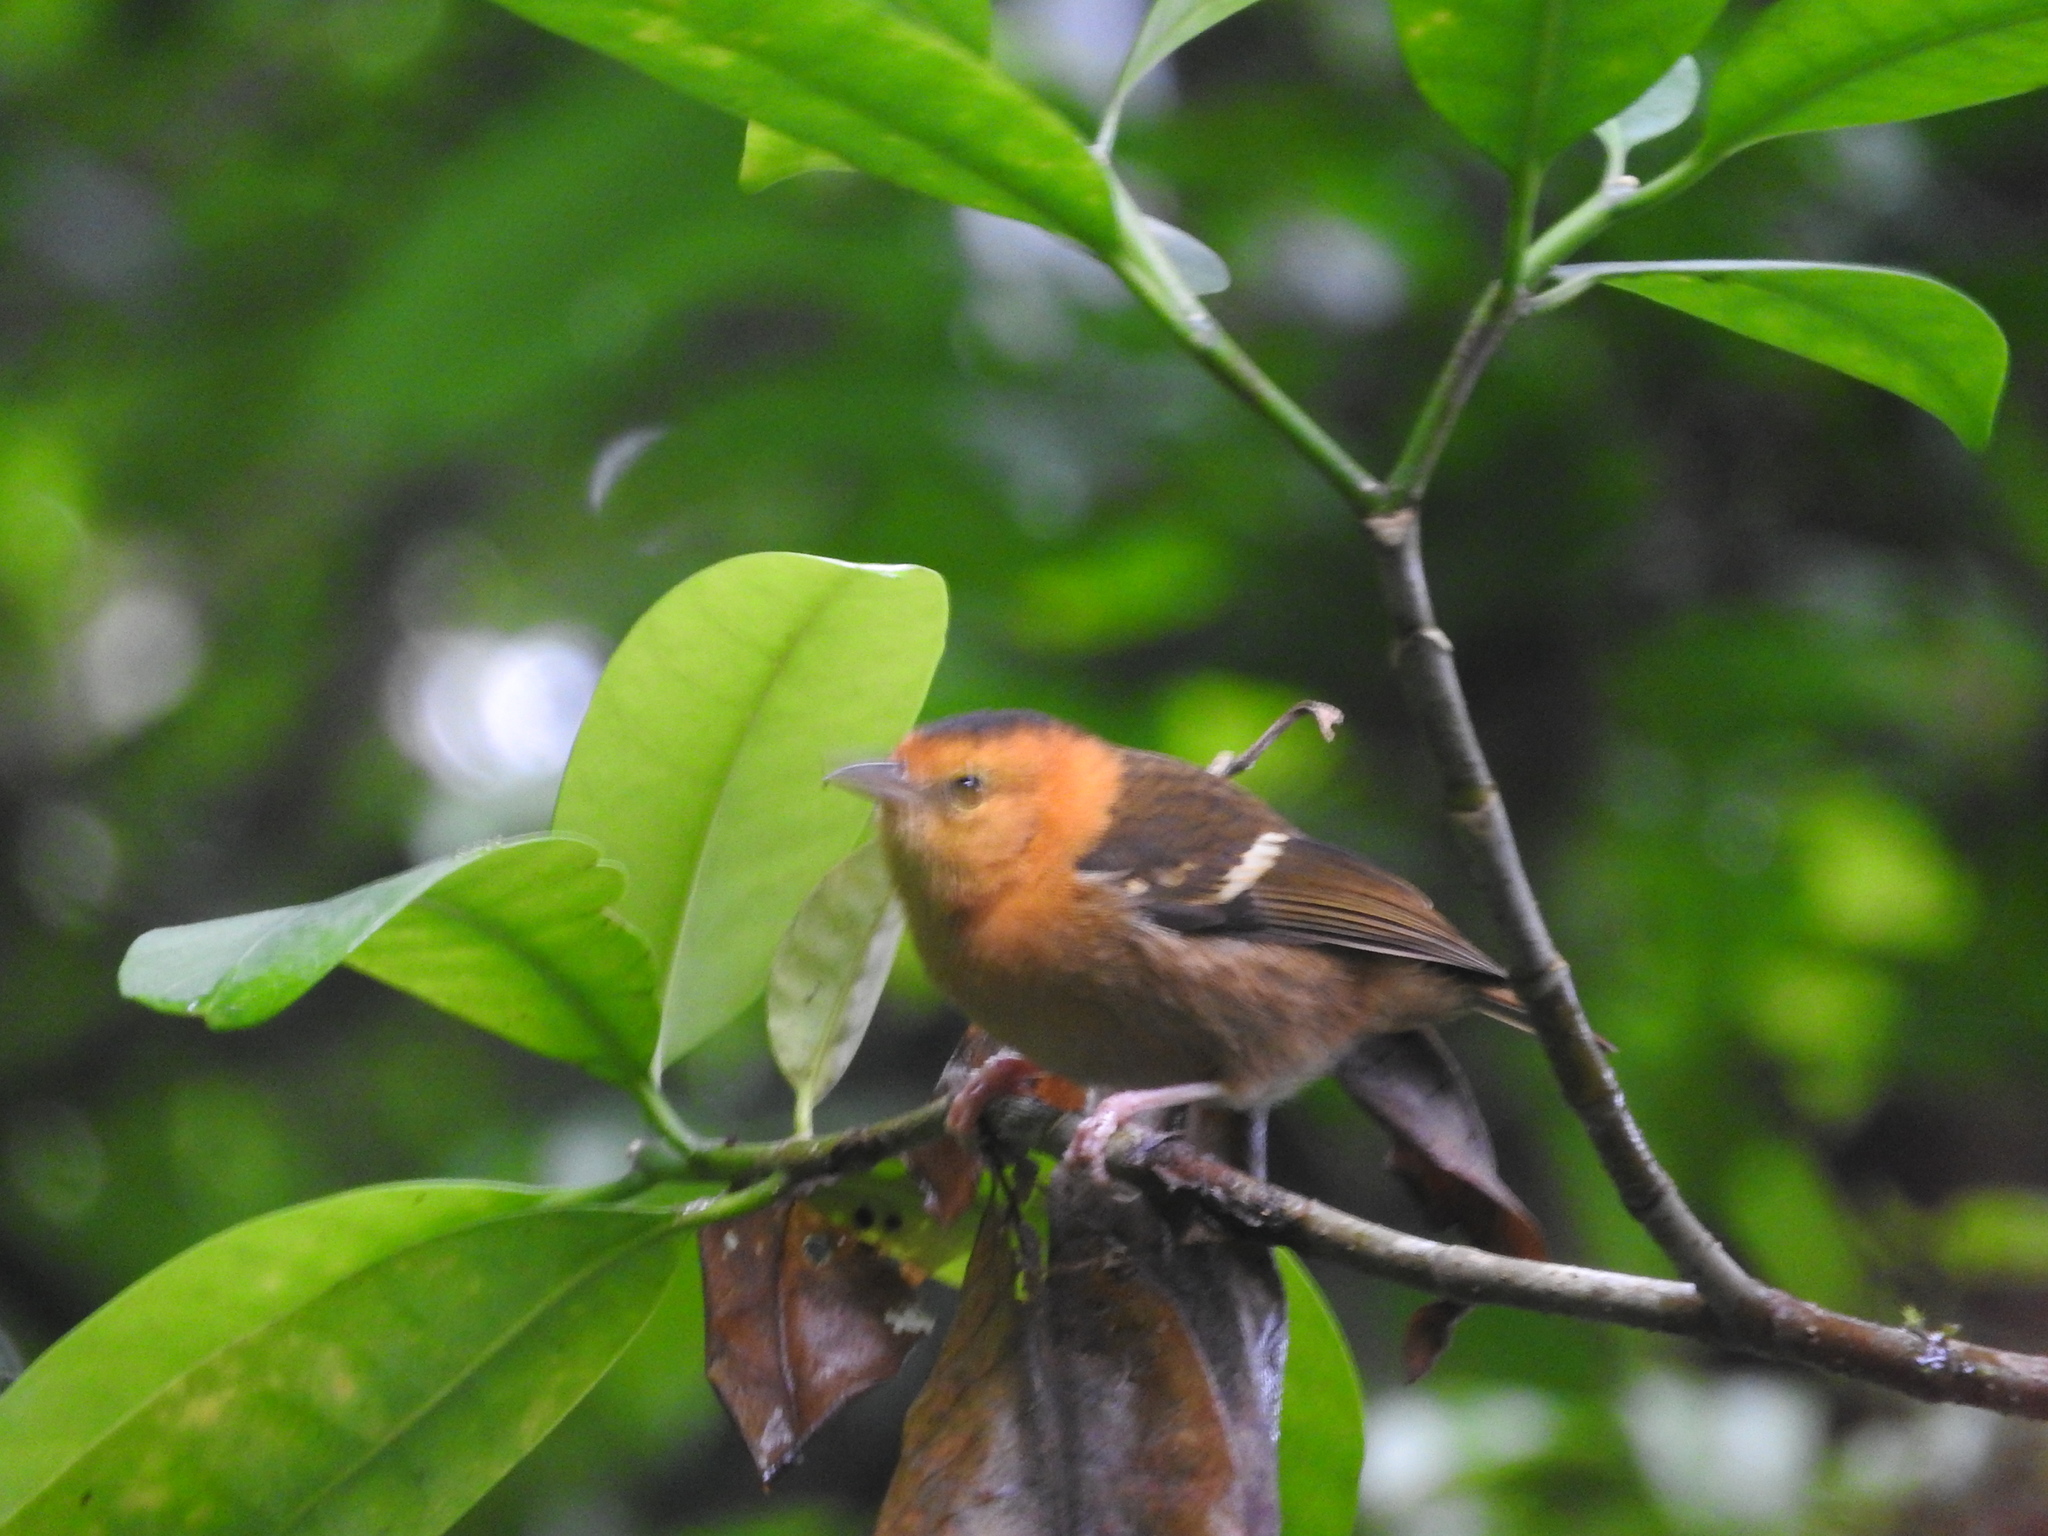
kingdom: Animalia
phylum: Chordata
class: Aves
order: Passeriformes
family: Ploceidae
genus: Ploceus
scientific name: Ploceus sanctithomae
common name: Sao tome weaver
